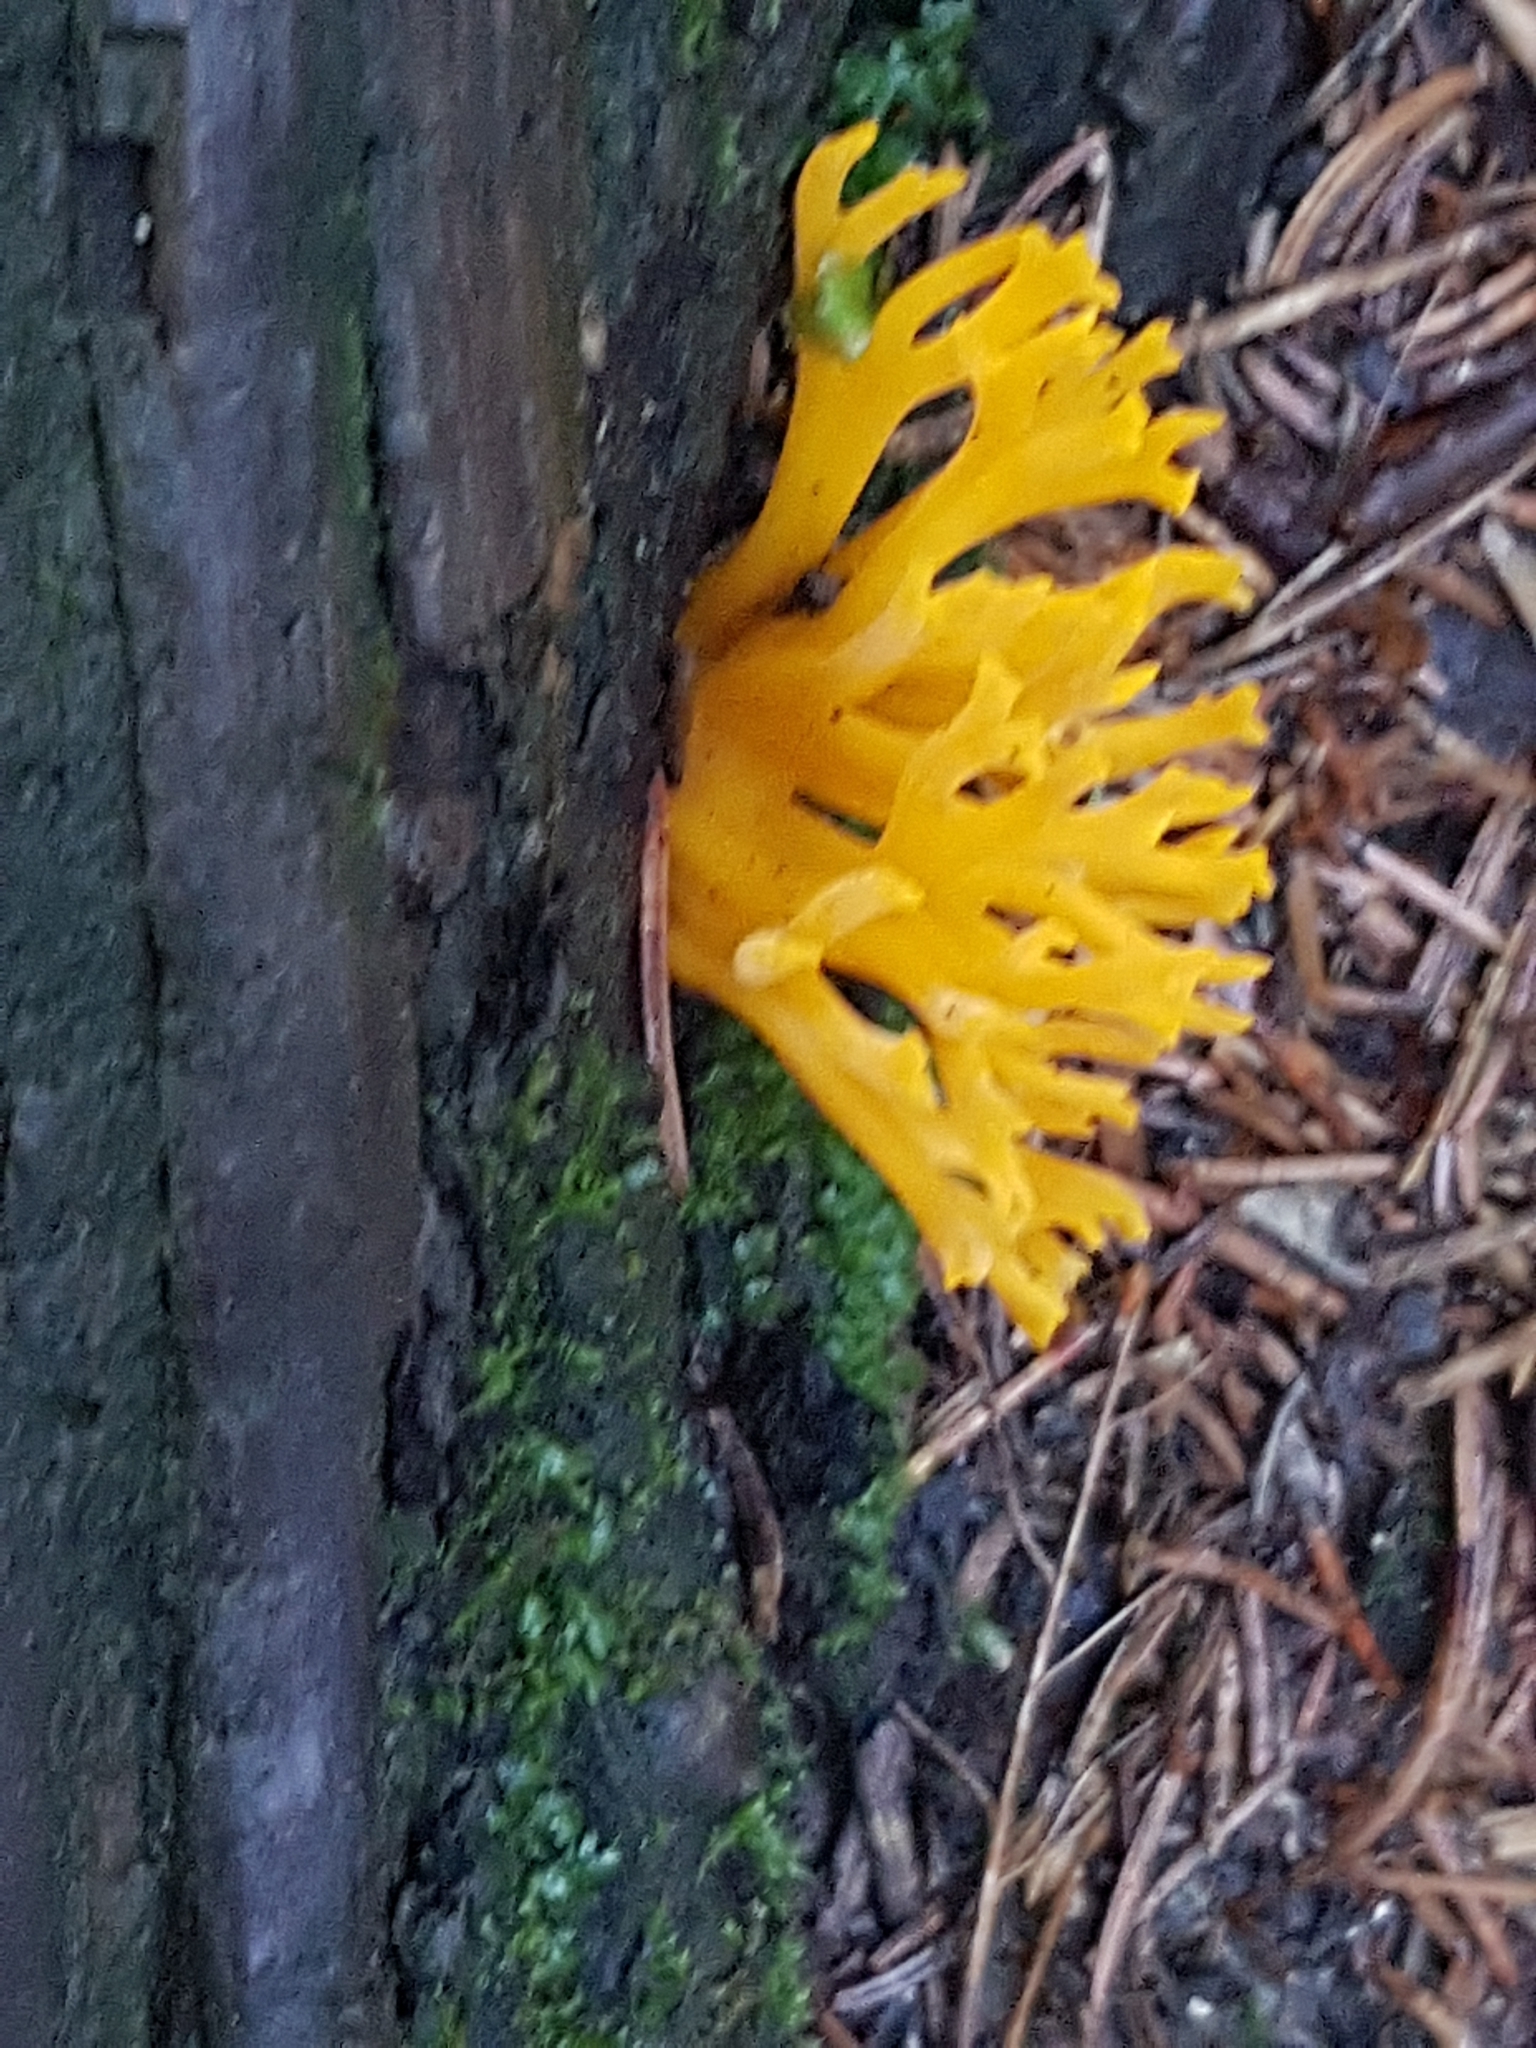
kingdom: Fungi
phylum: Basidiomycota
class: Dacrymycetes
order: Dacrymycetales
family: Dacrymycetaceae
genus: Calocera
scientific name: Calocera viscosa
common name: Yellow stagshorn
